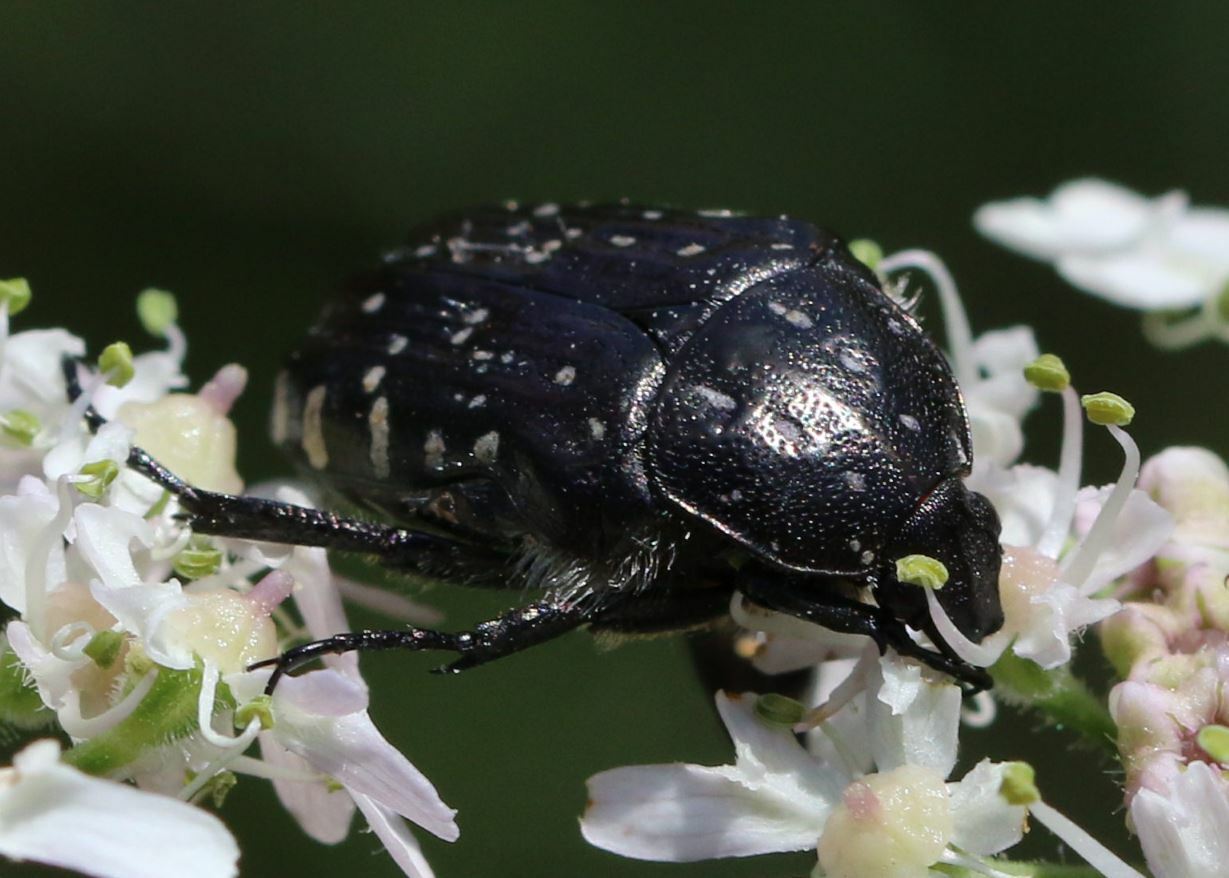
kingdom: Animalia
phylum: Arthropoda
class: Insecta
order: Coleoptera
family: Scarabaeidae
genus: Oxythyrea
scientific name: Oxythyrea funesta
